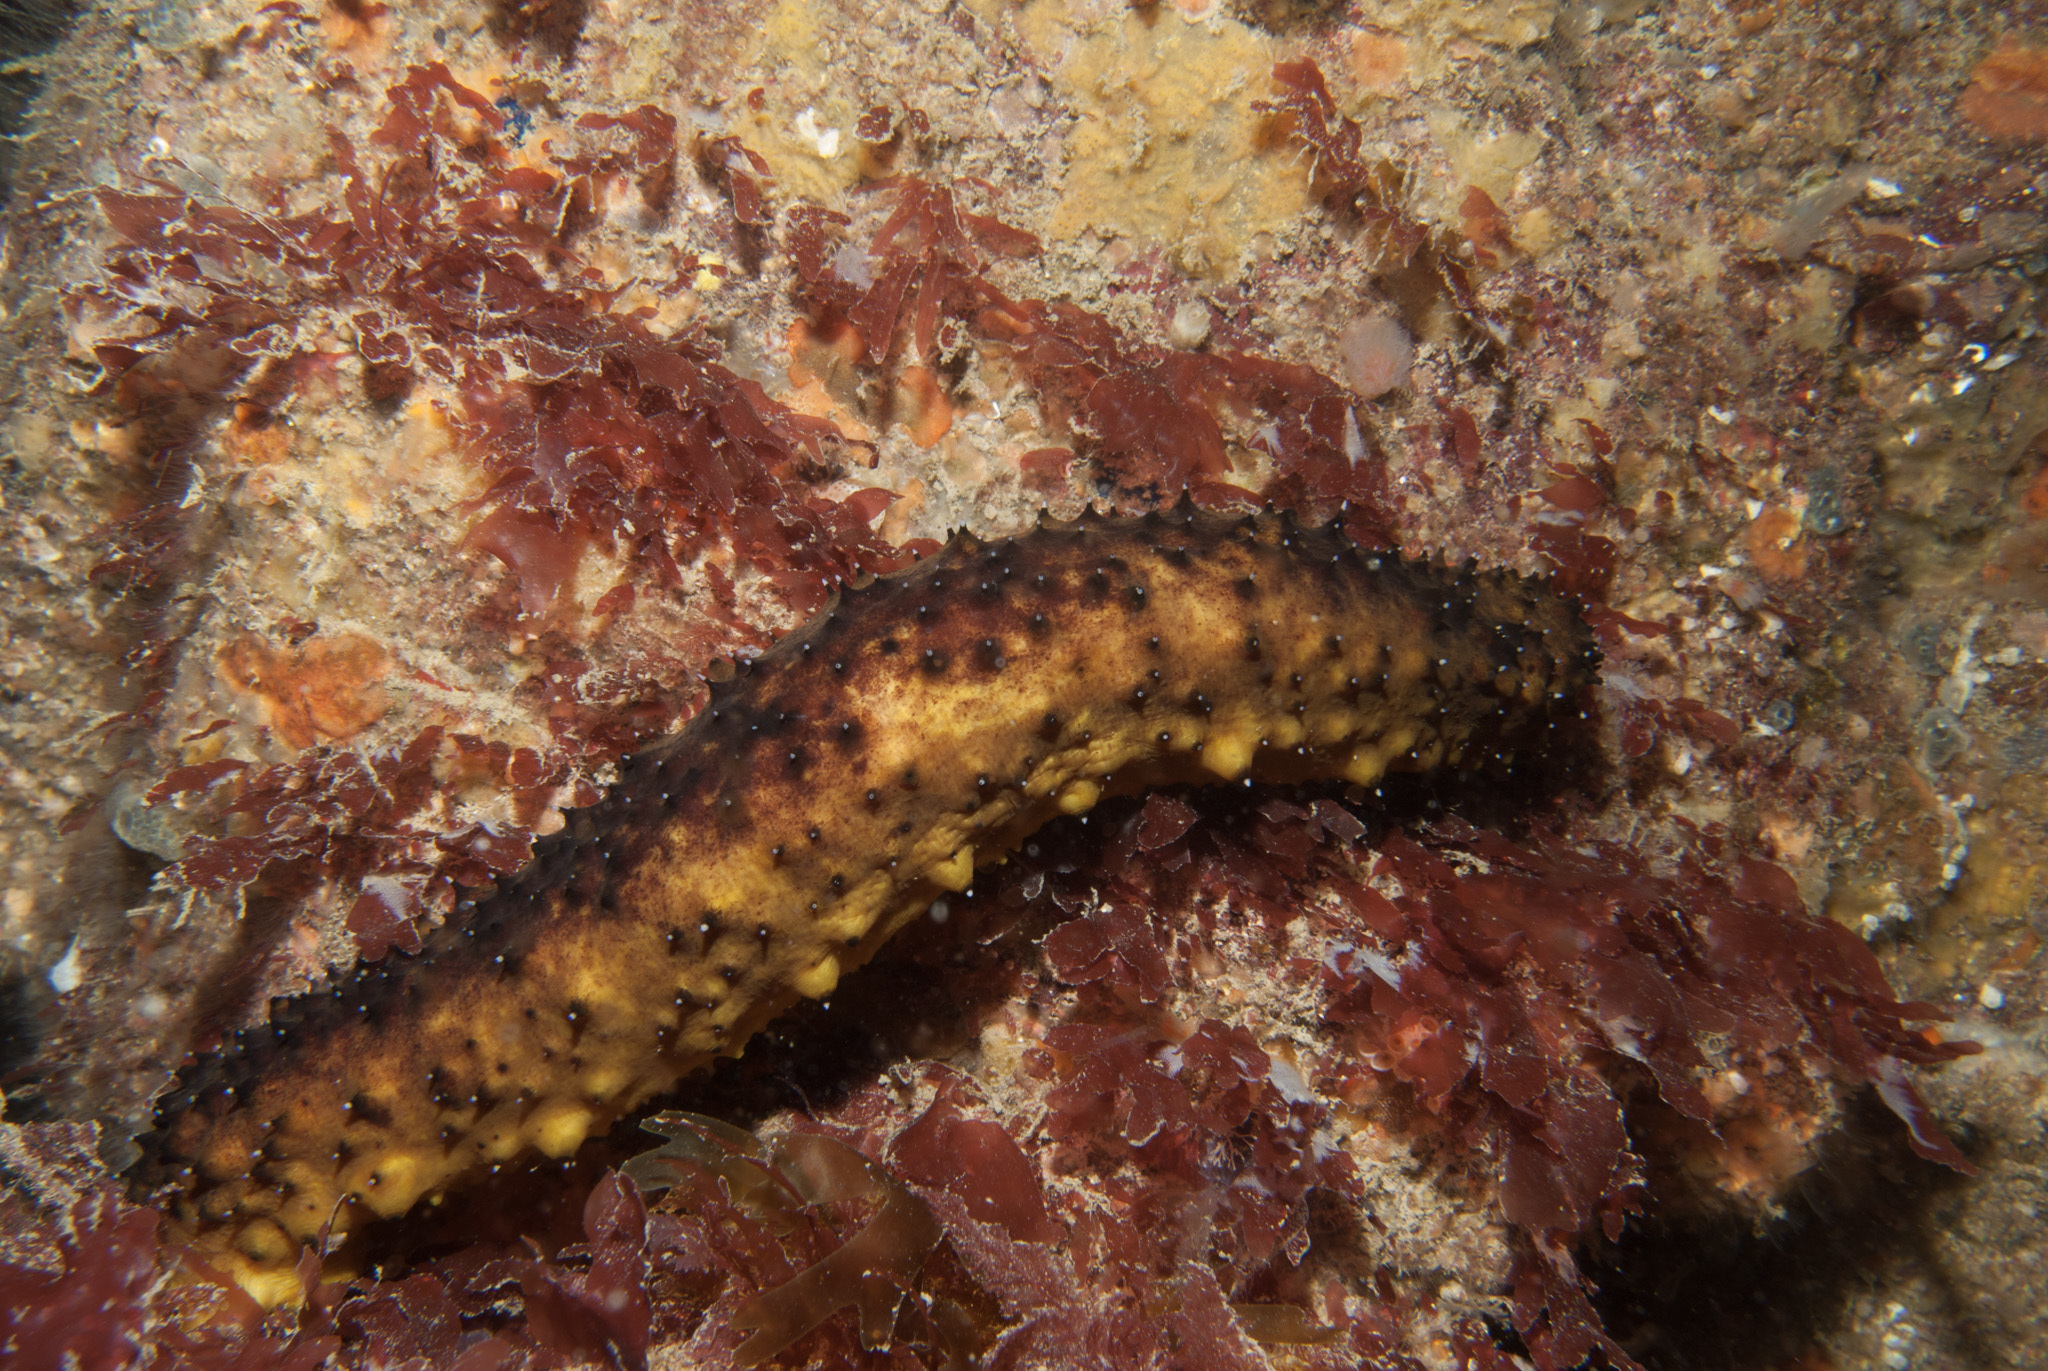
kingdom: Animalia
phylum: Echinodermata
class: Holothuroidea
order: Holothuriida
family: Holothuriidae
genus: Holothuria
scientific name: Holothuria forskali
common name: Black sea cucumber
